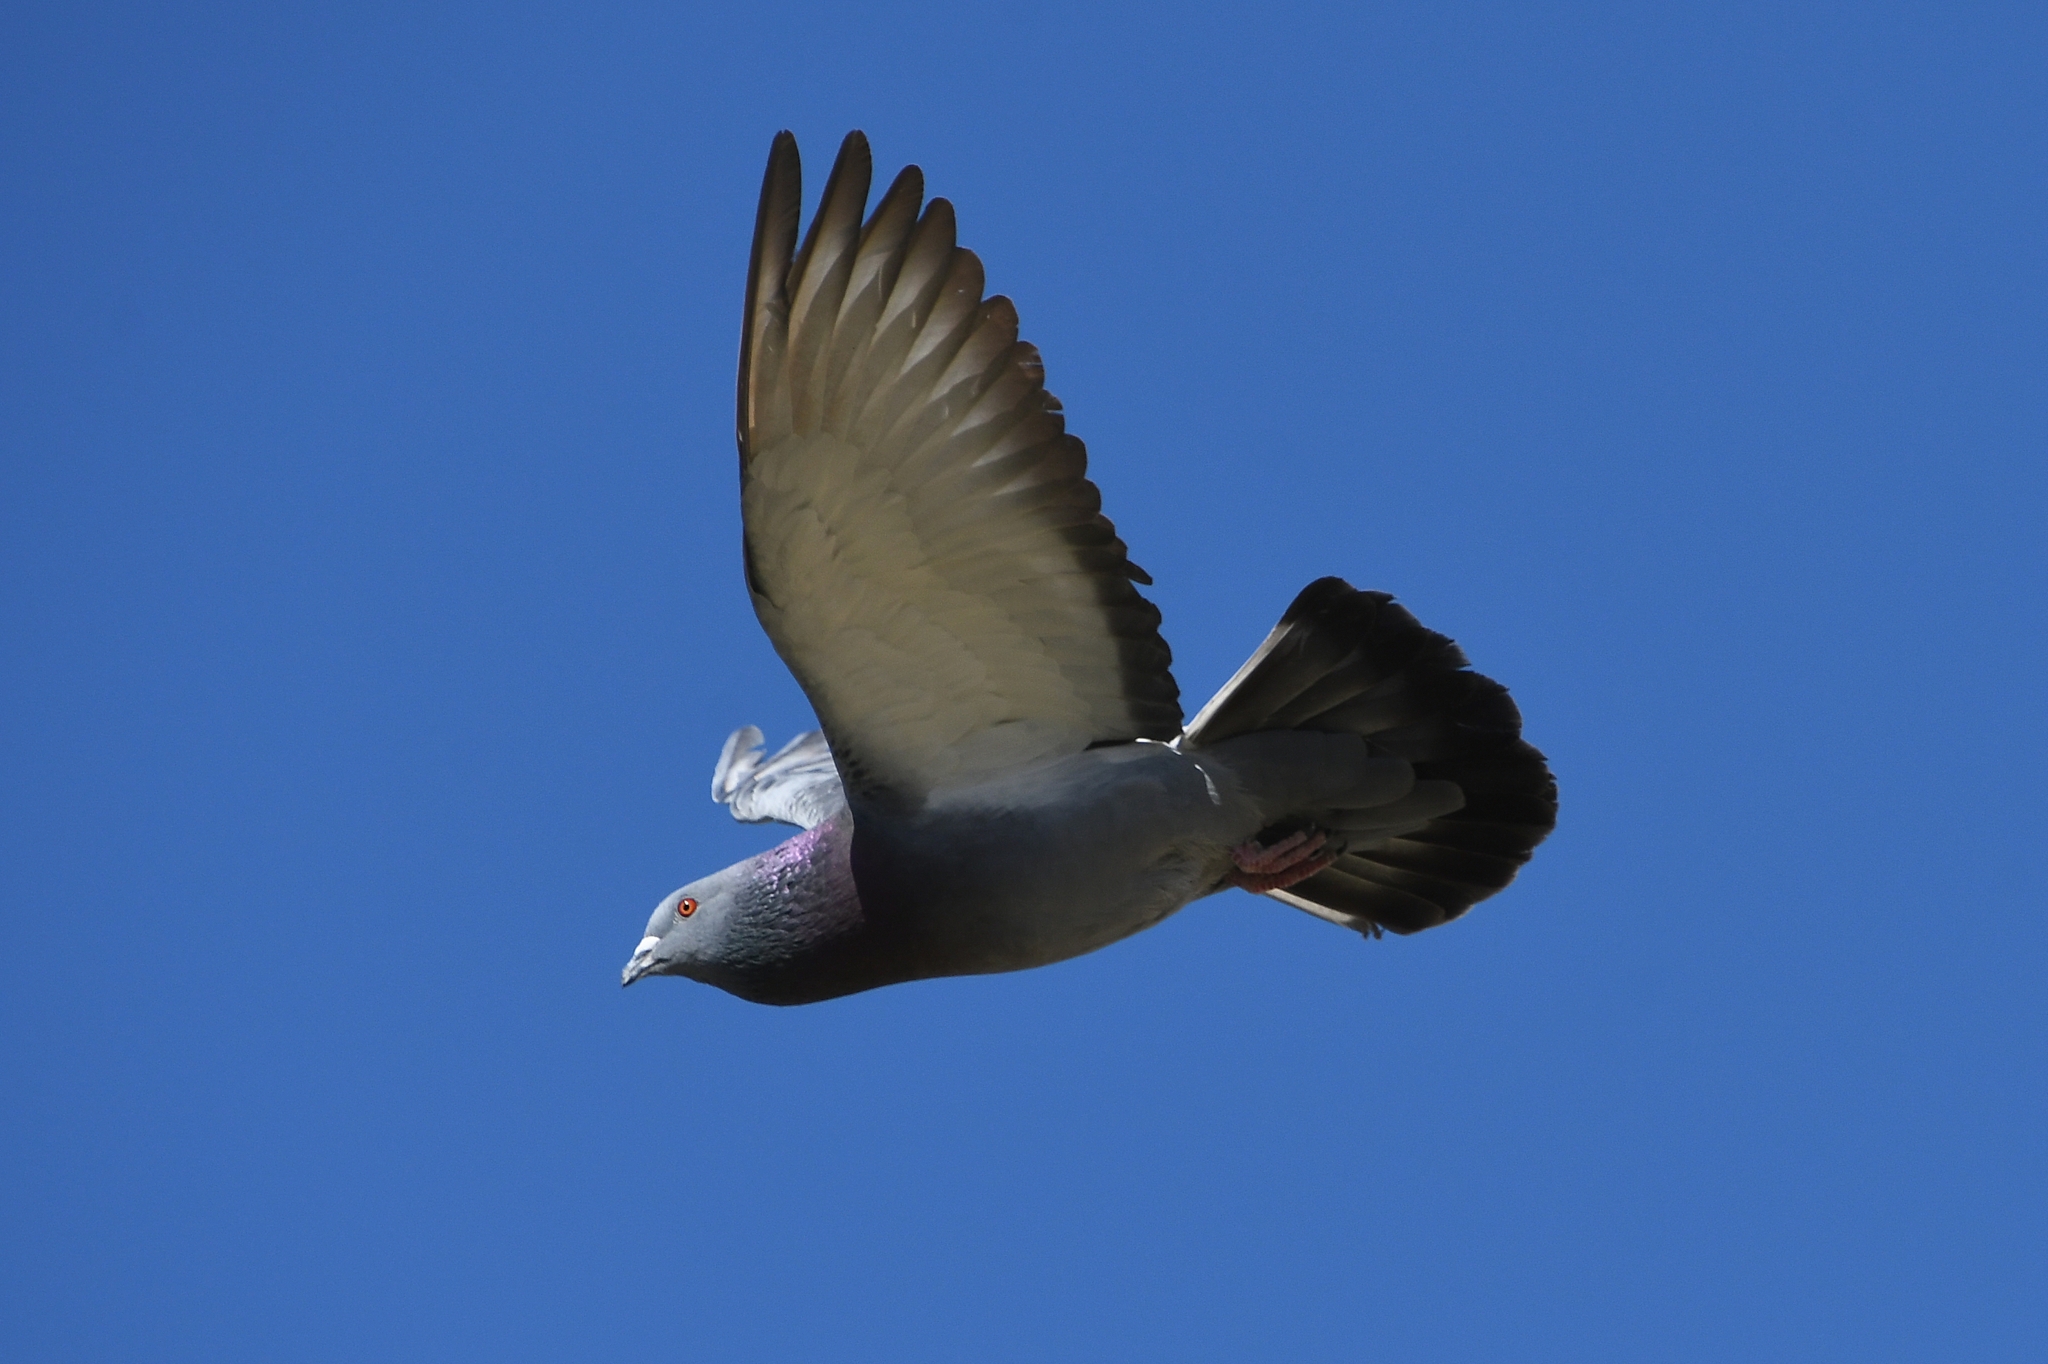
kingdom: Animalia
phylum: Chordata
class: Aves
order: Columbiformes
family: Columbidae
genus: Columba
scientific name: Columba livia
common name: Rock pigeon
